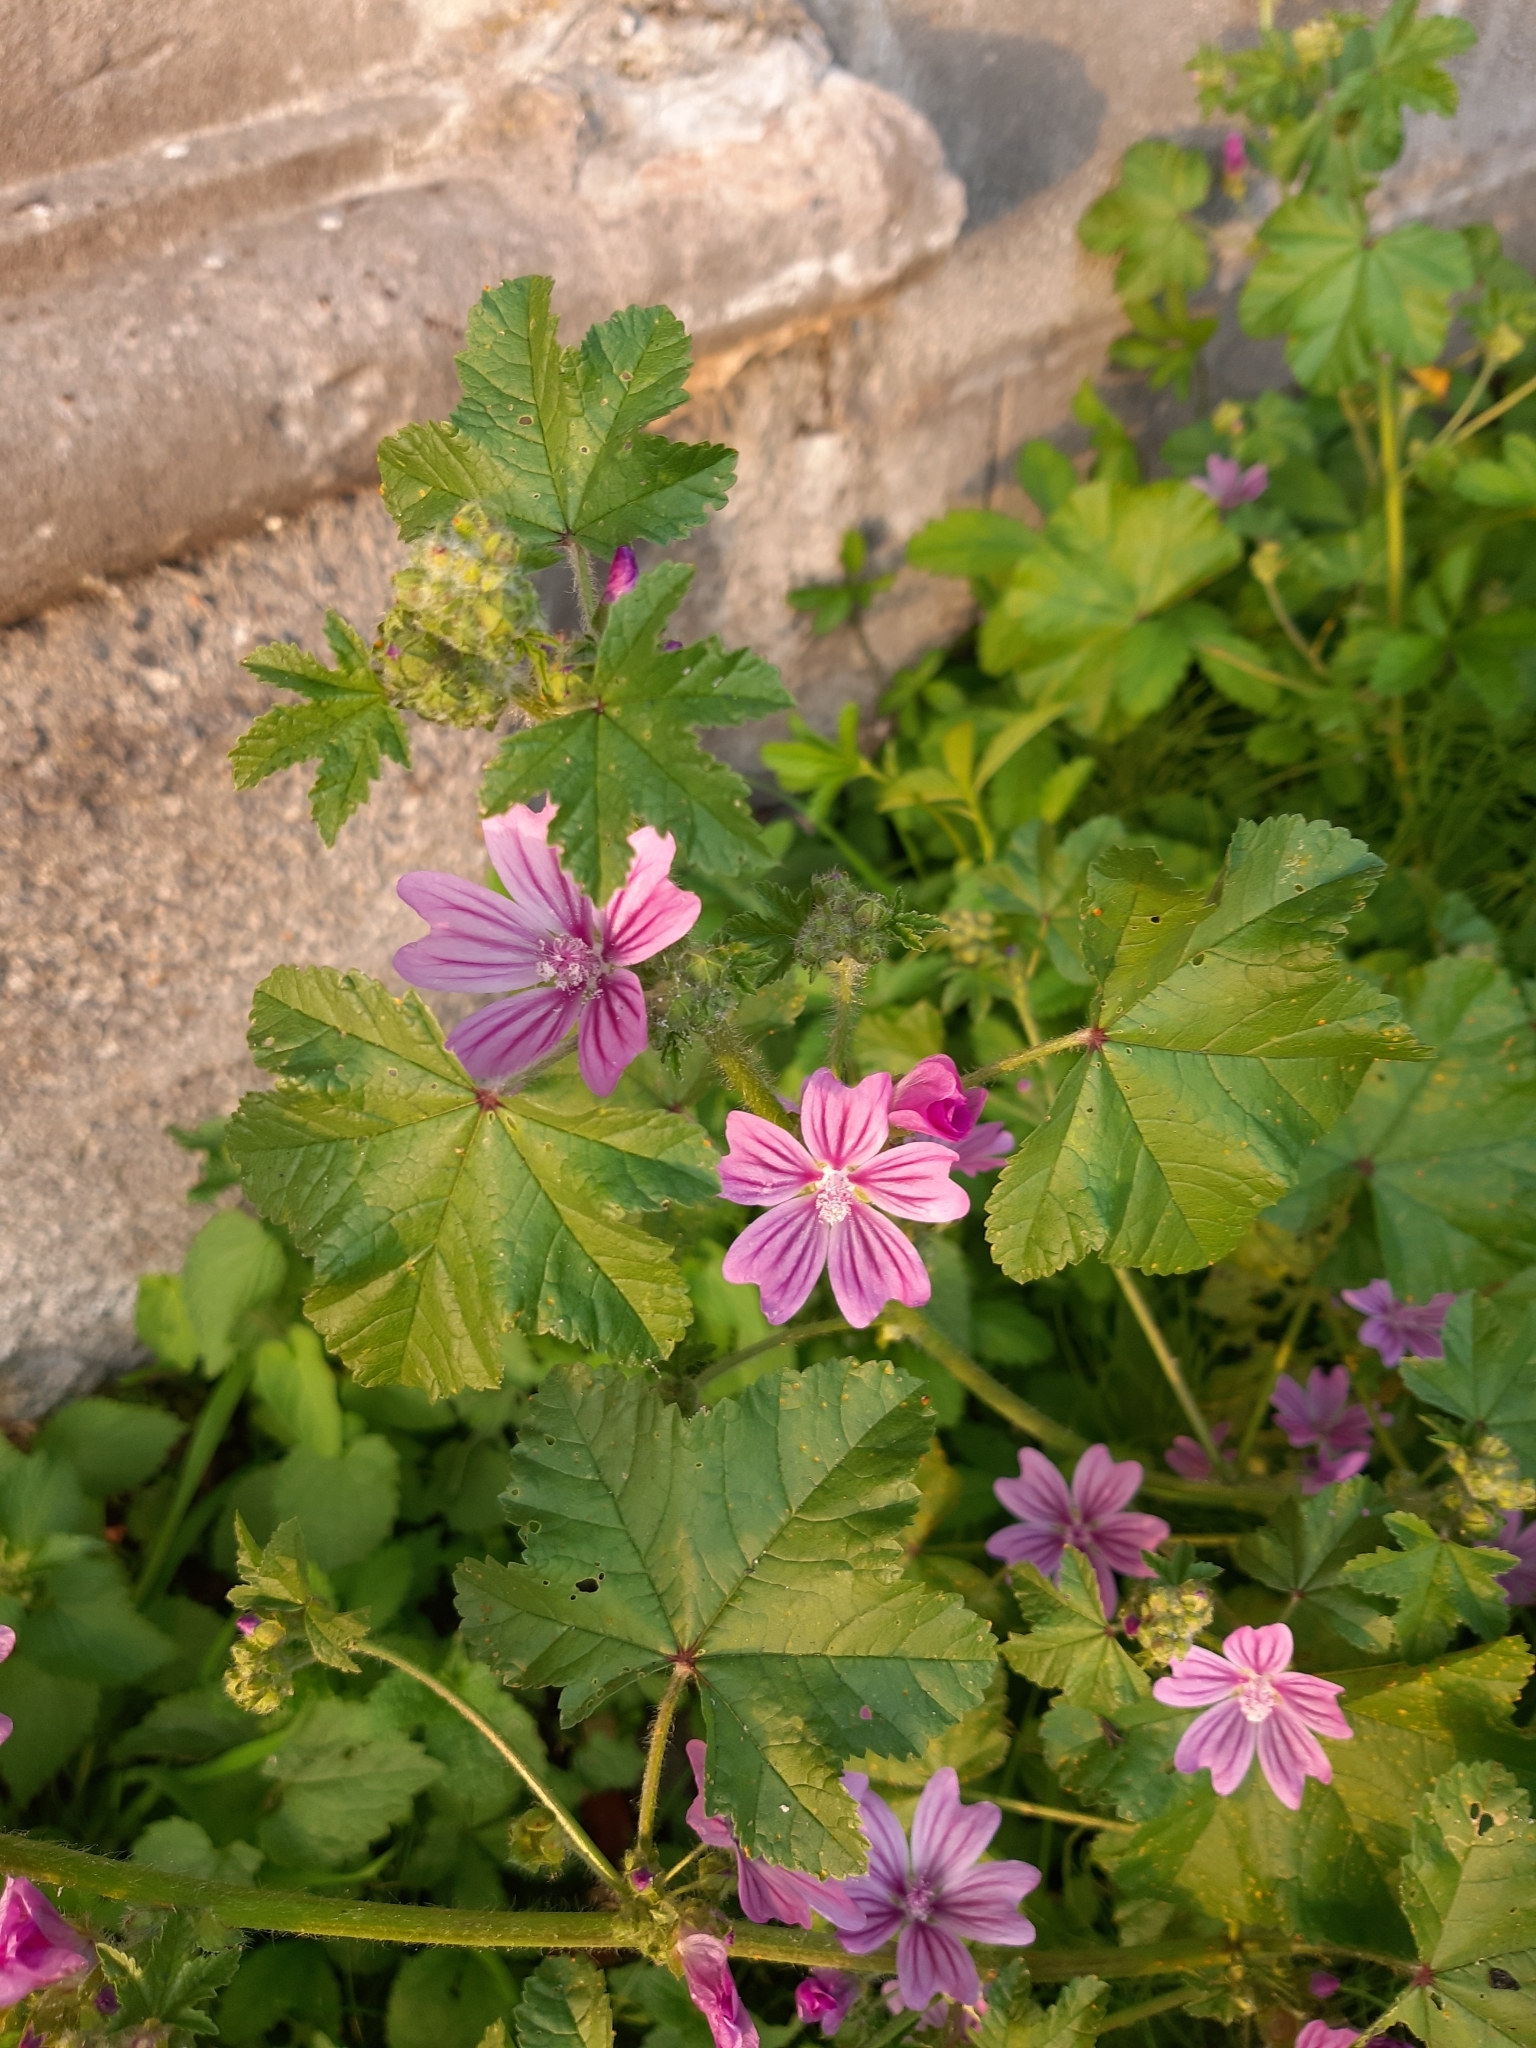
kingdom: Plantae
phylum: Tracheophyta
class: Magnoliopsida
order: Malvales
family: Malvaceae
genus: Malva
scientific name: Malva sylvestris
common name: Common mallow
